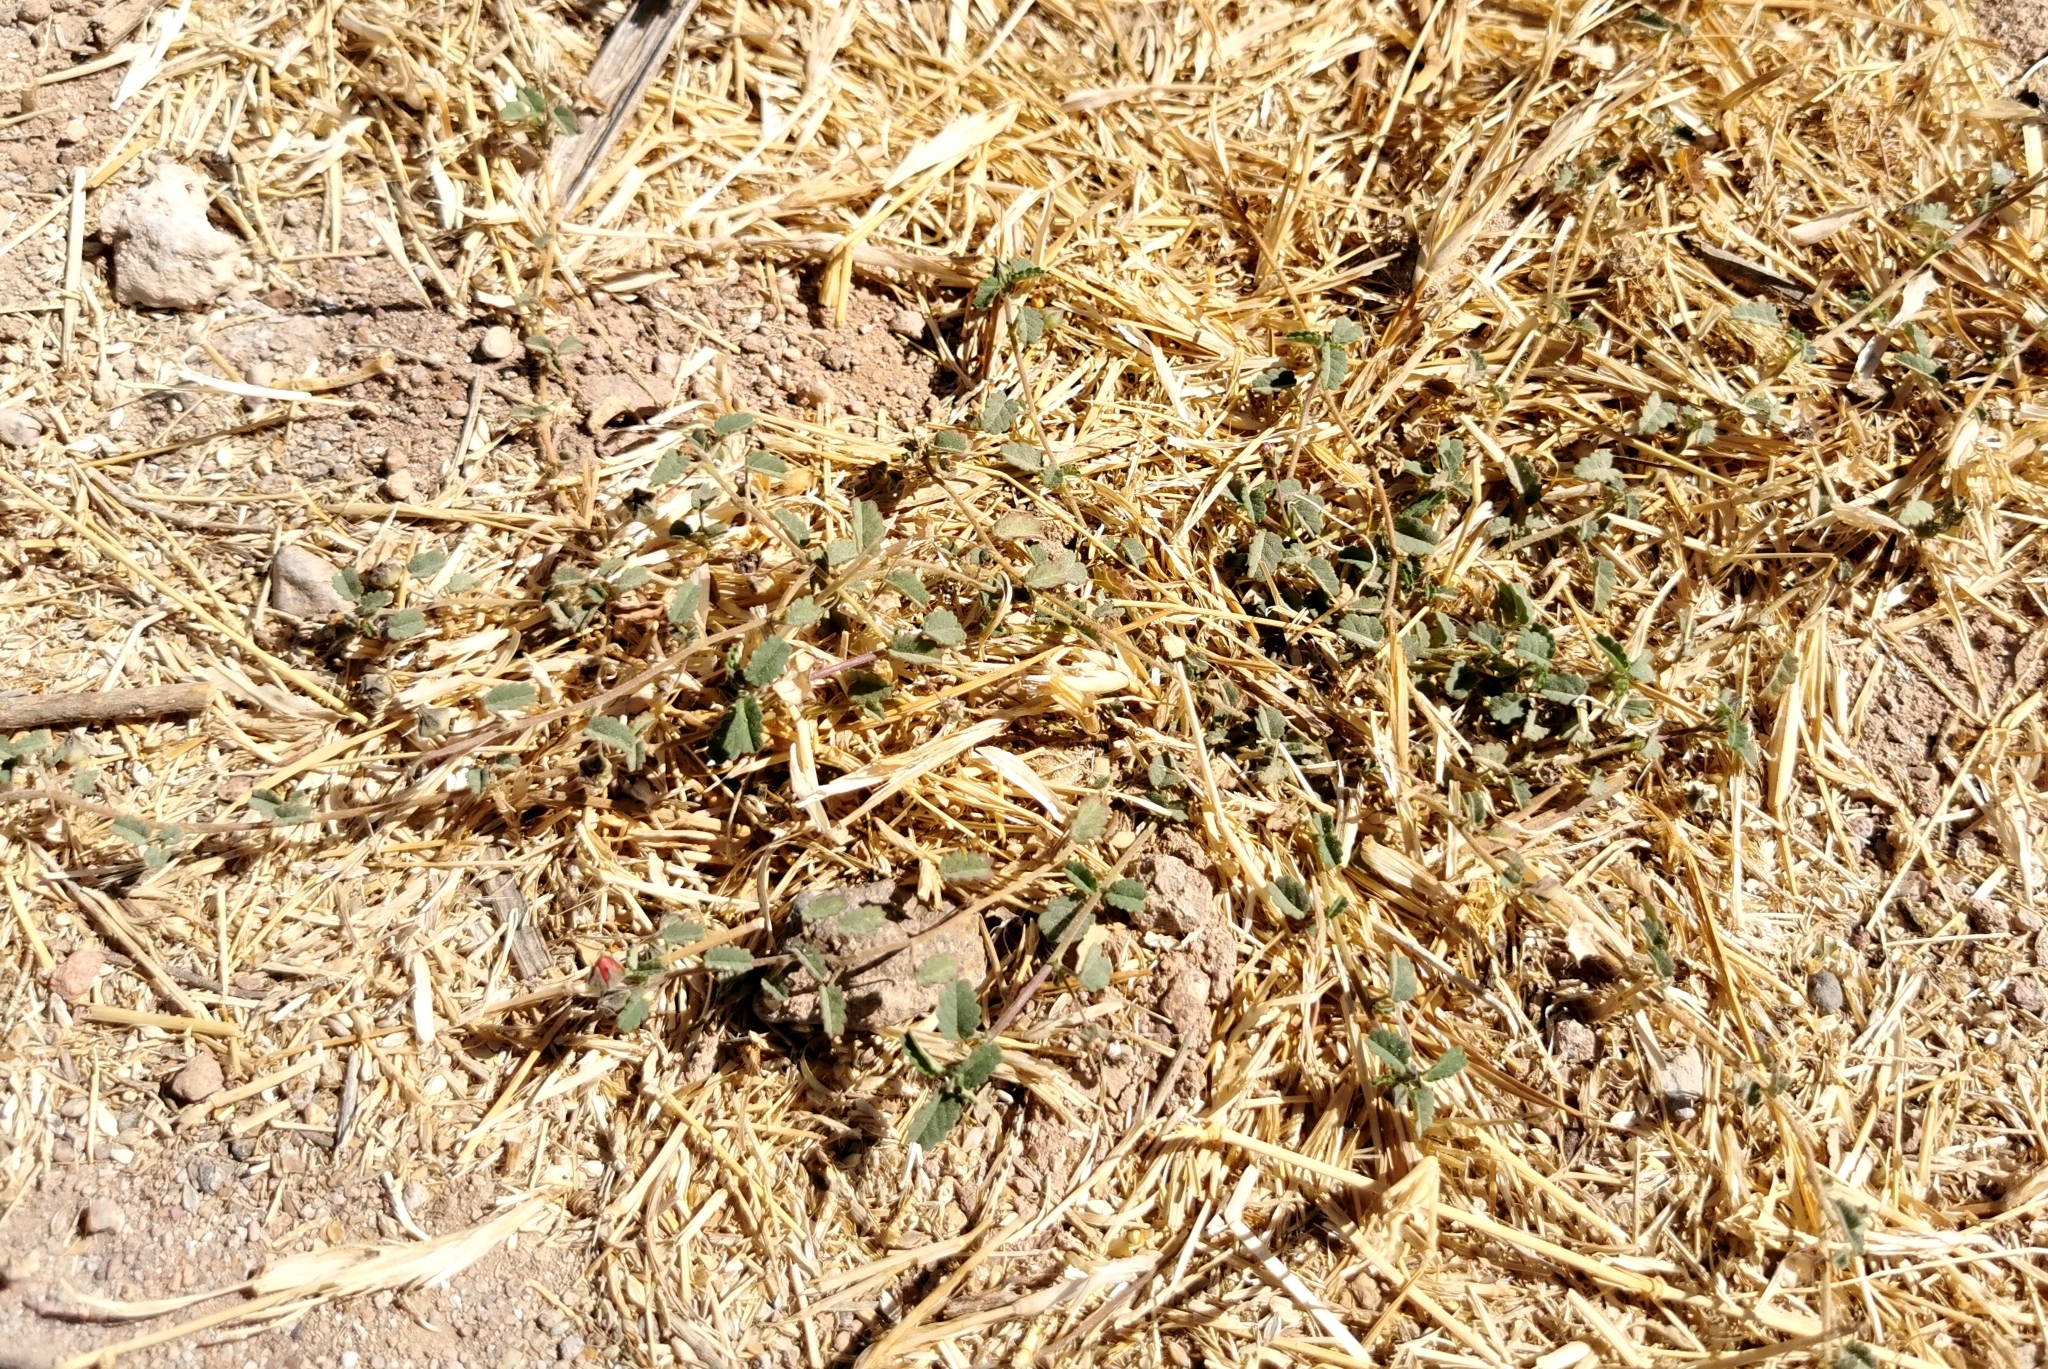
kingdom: Plantae
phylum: Tracheophyta
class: Magnoliopsida
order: Malvales
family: Malvaceae
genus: Sida
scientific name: Sida abutilifolia
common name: Spreading fanpetals
